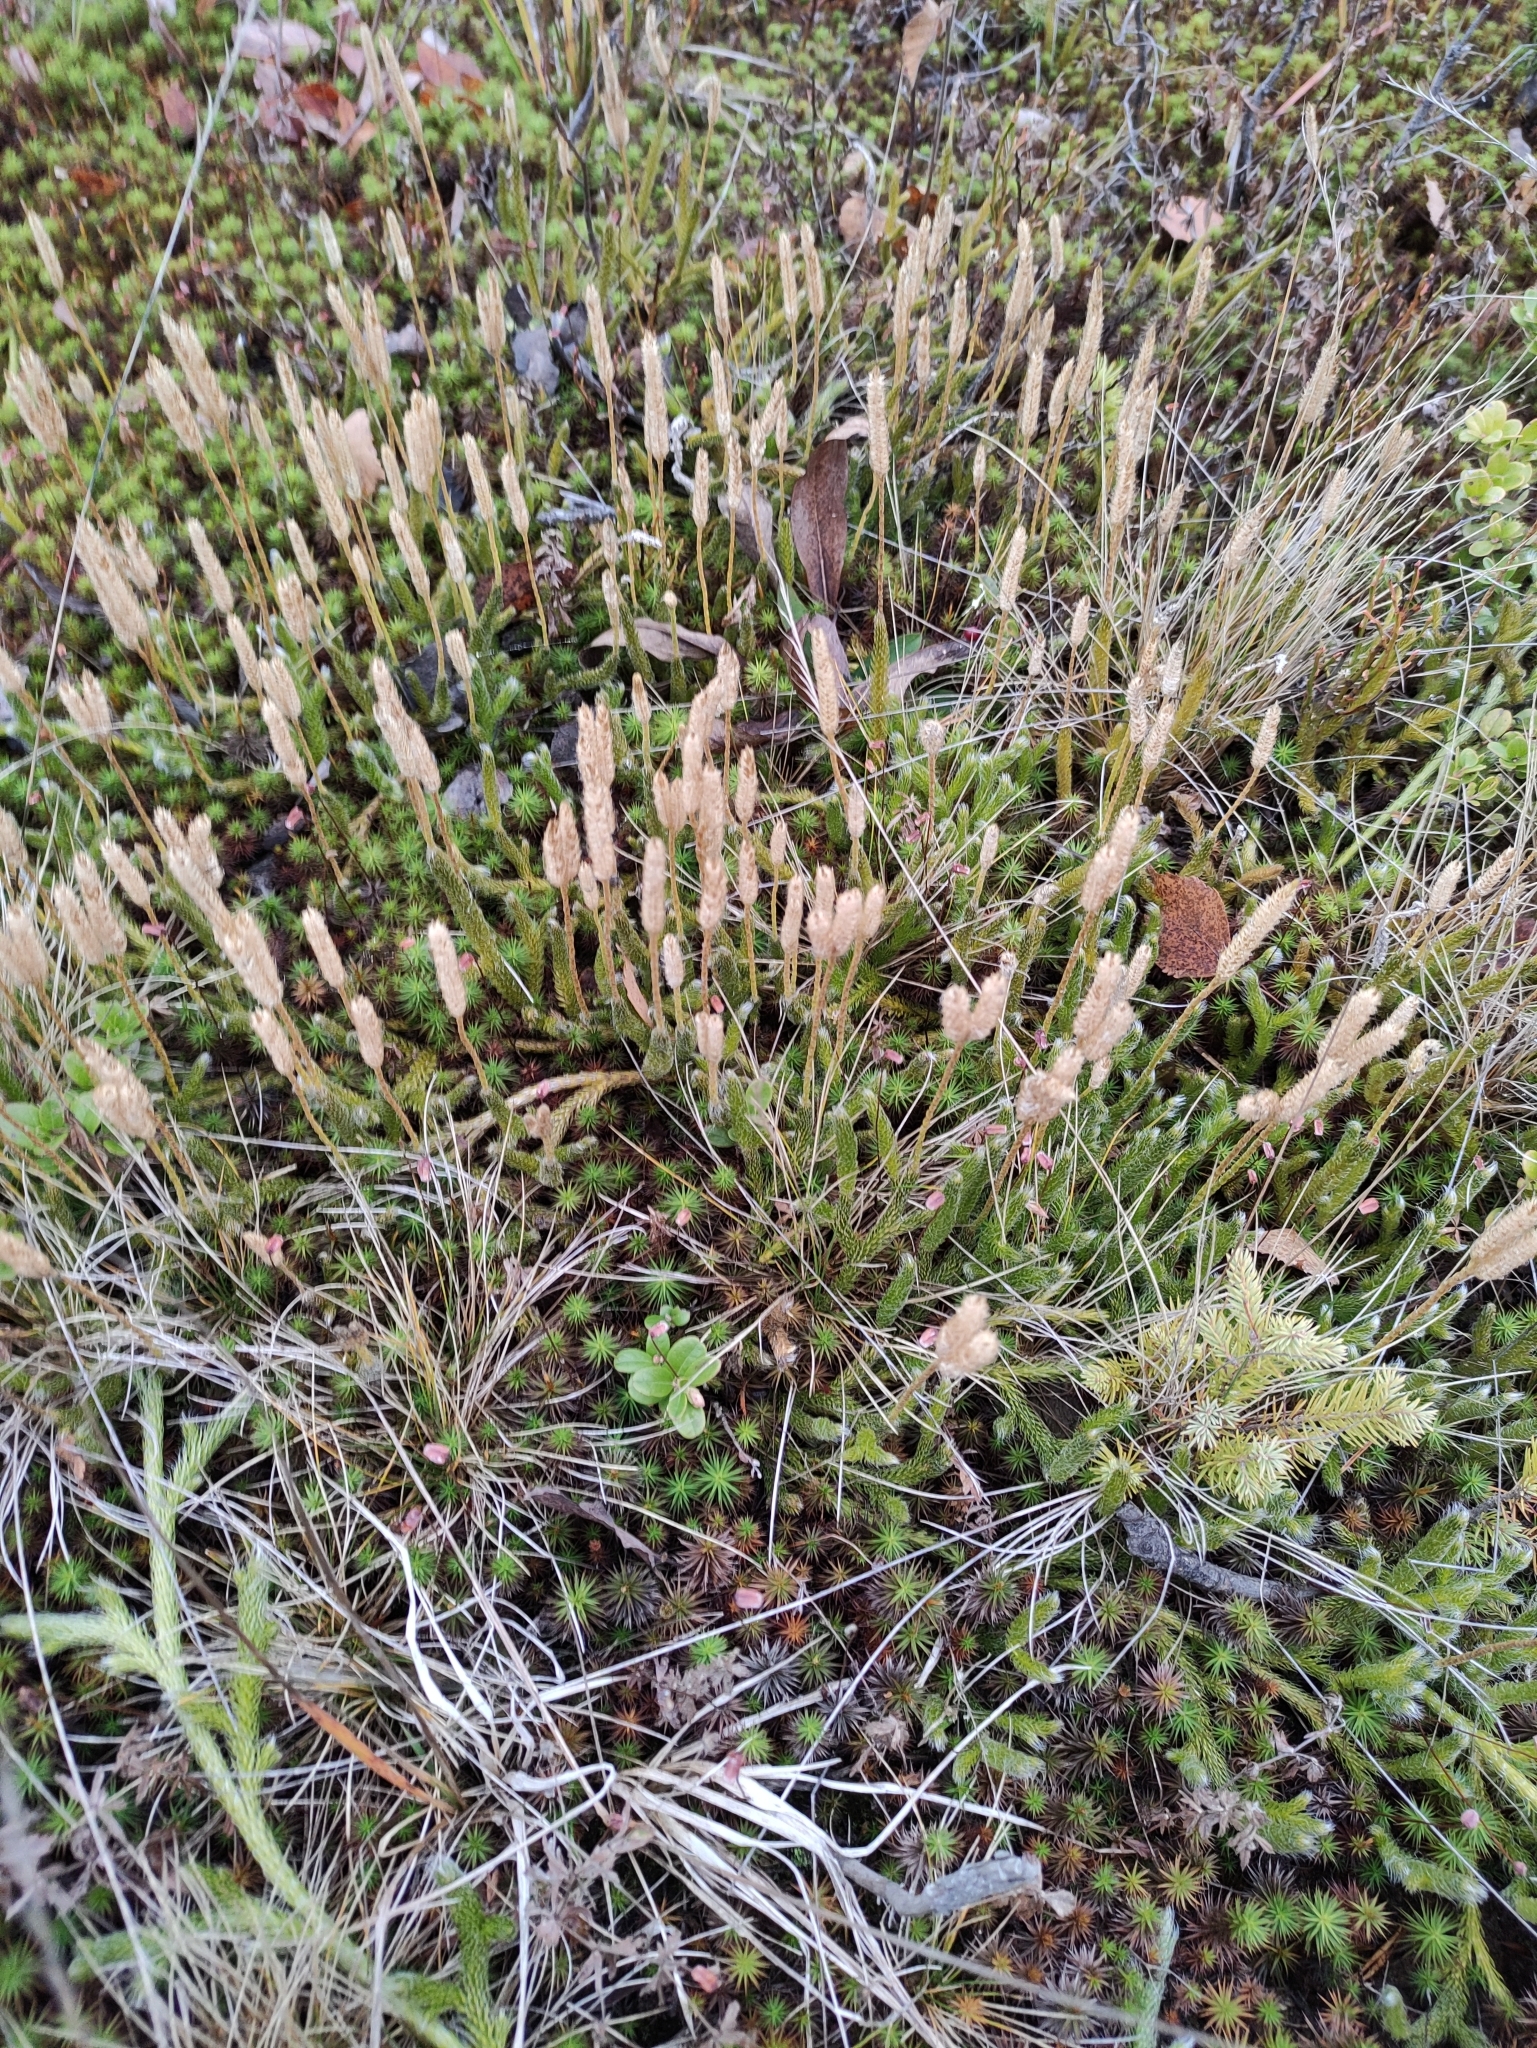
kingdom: Plantae
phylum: Tracheophyta
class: Lycopodiopsida
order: Lycopodiales
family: Lycopodiaceae
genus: Lycopodium
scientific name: Lycopodium clavatum
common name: Stag's-horn clubmoss
